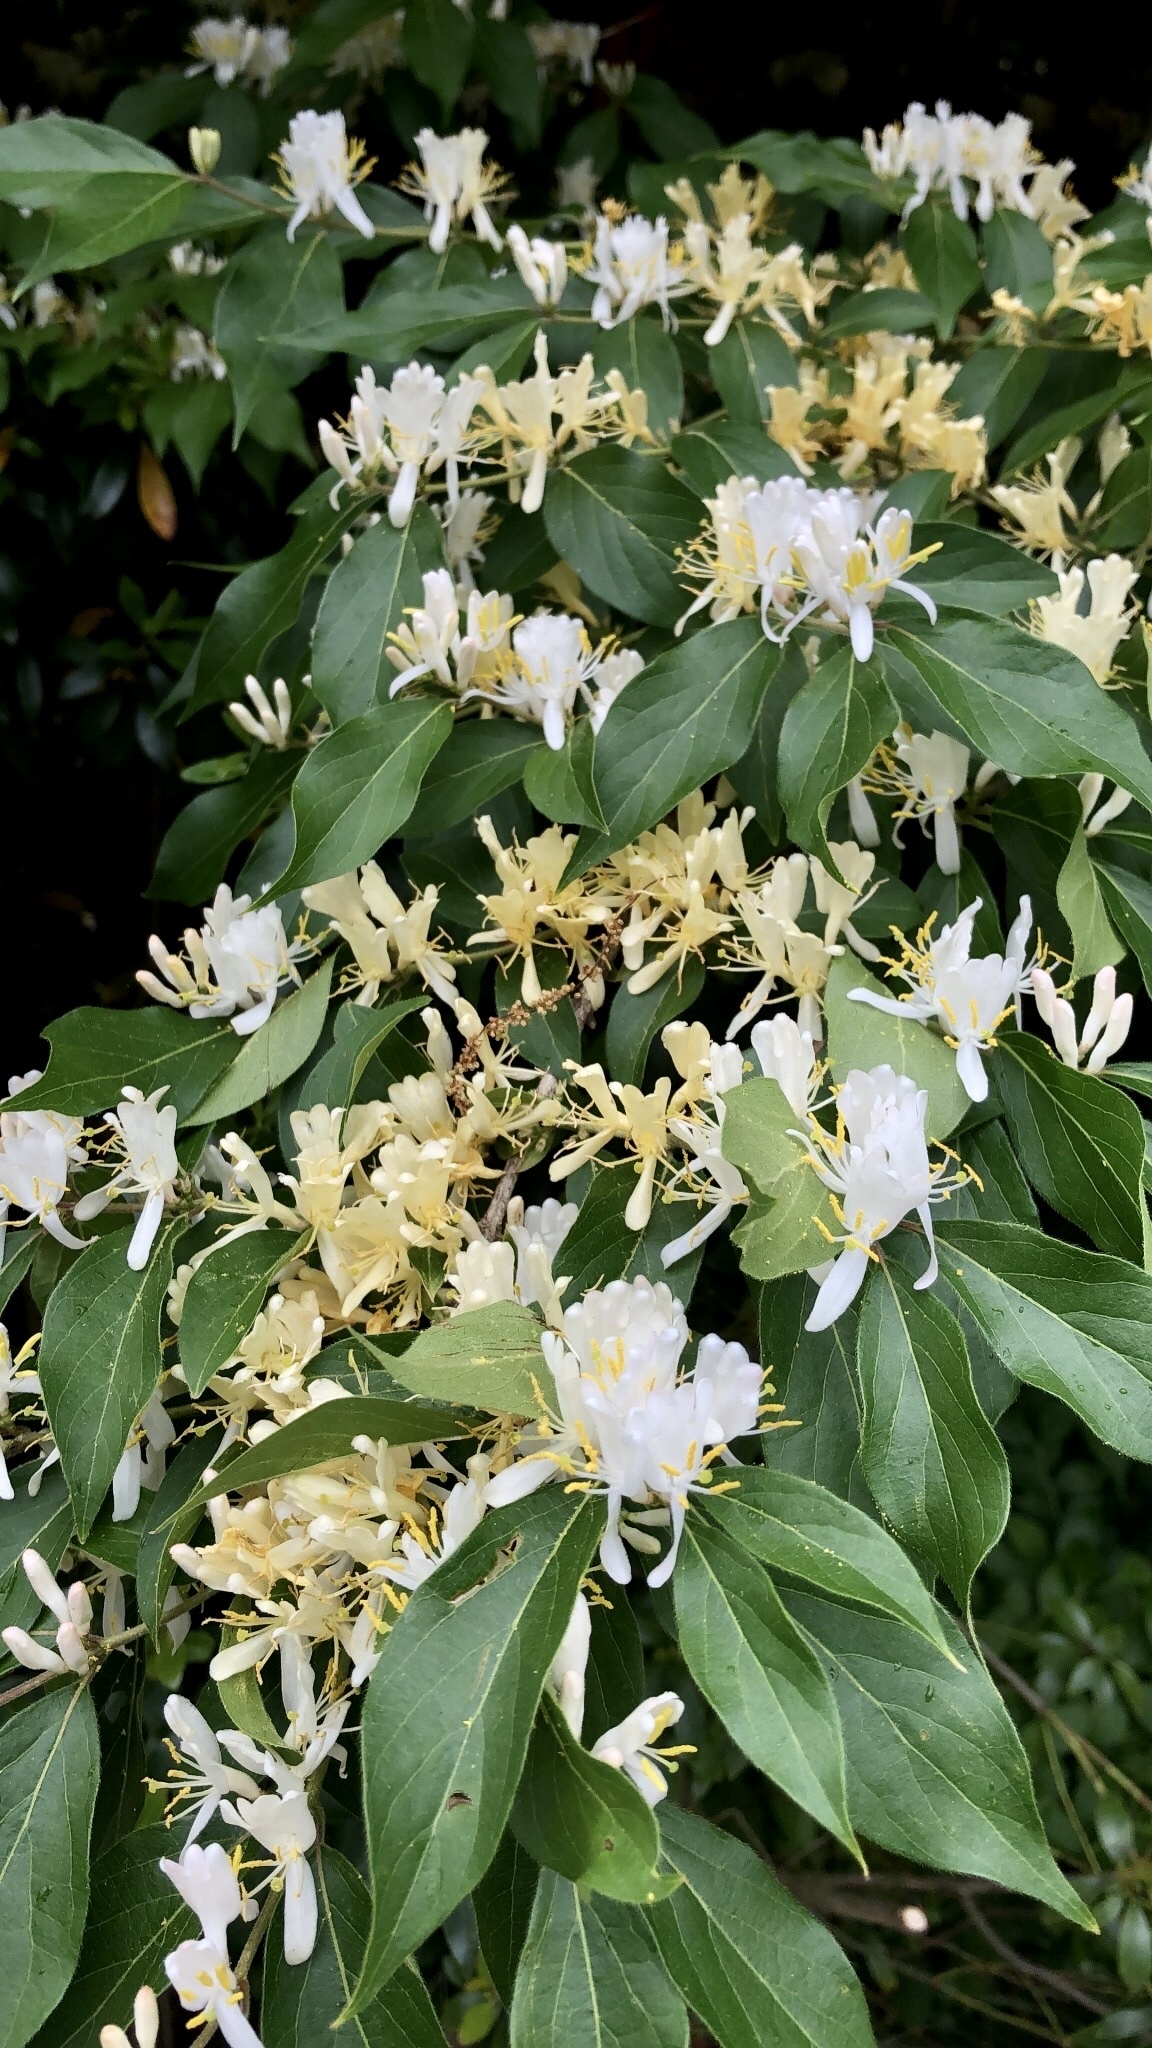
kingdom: Plantae
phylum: Tracheophyta
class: Magnoliopsida
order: Dipsacales
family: Caprifoliaceae
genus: Lonicera
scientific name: Lonicera maackii
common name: Amur honeysuckle
